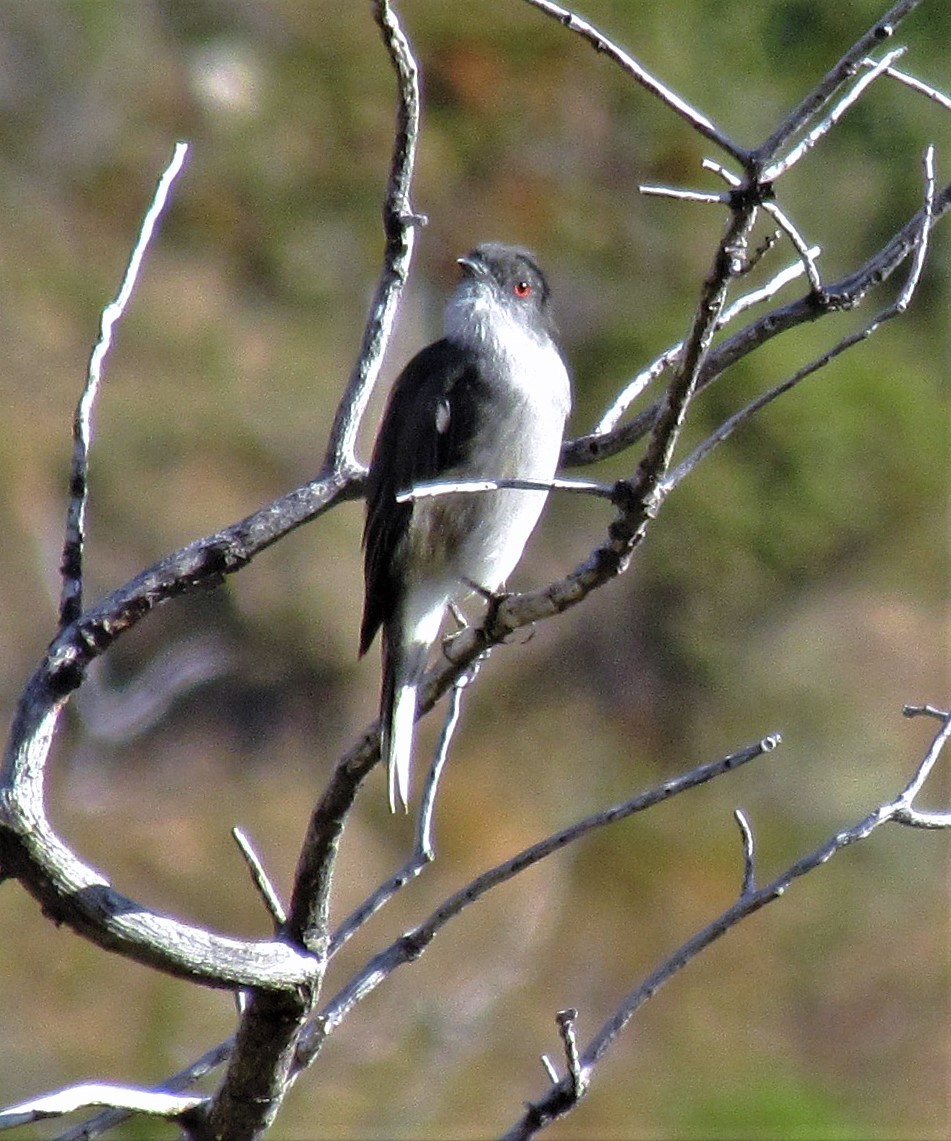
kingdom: Animalia
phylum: Chordata
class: Aves
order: Passeriformes
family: Tyrannidae
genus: Xolmis
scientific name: Xolmis pyrope
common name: Fire-eyed diucon
